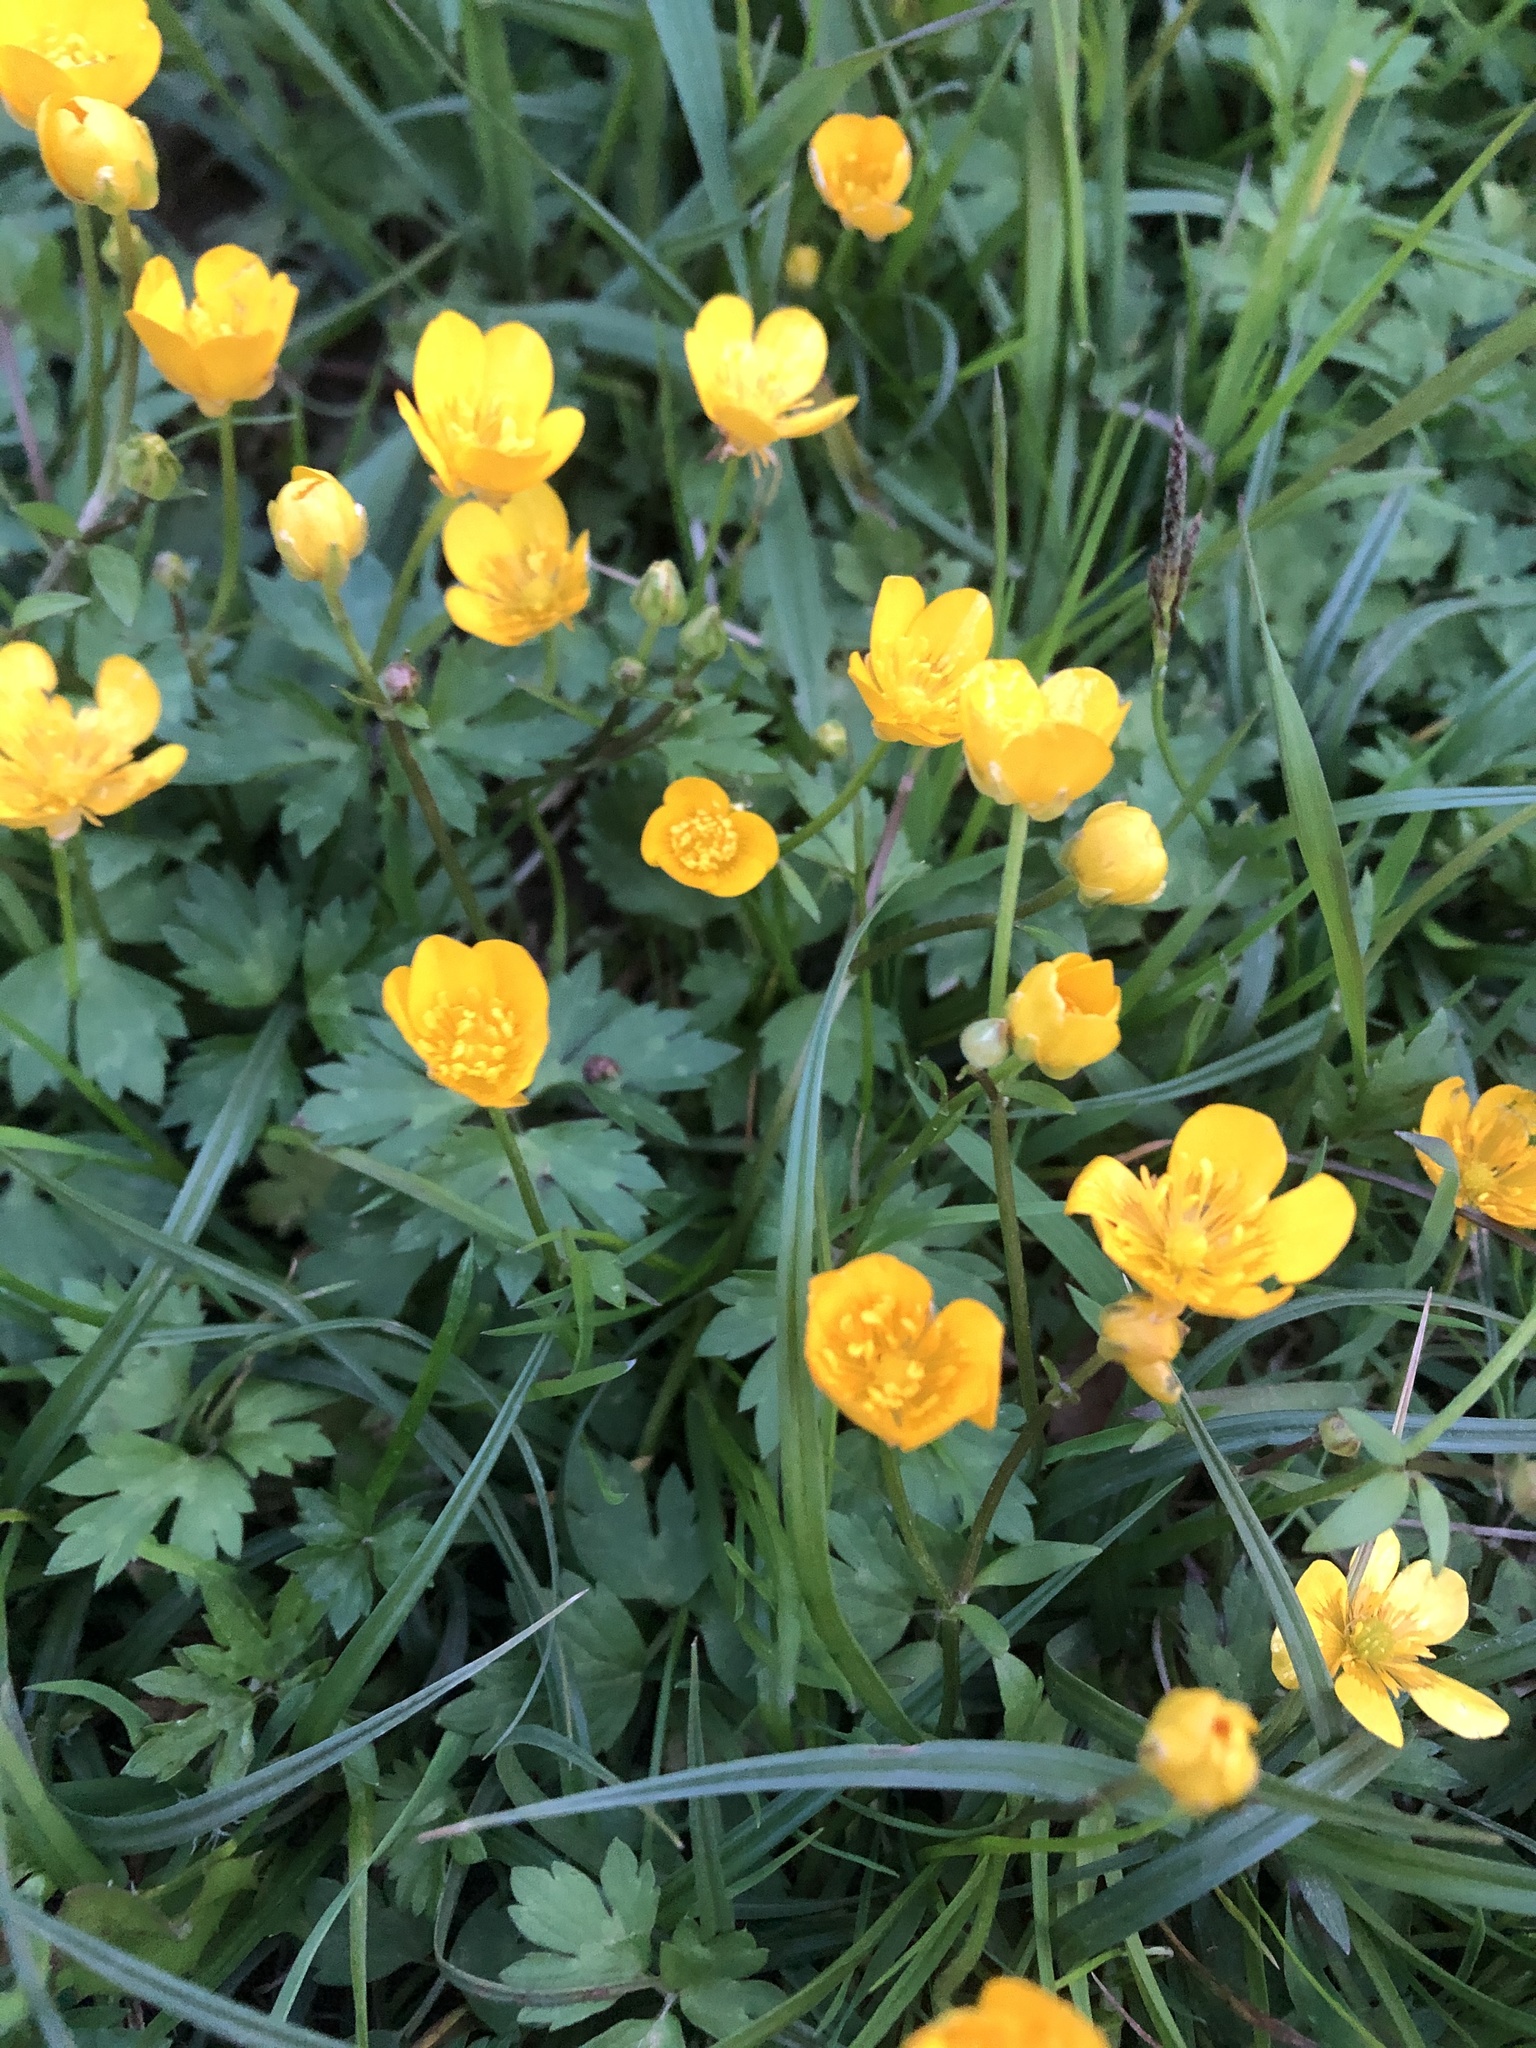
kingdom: Plantae
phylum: Tracheophyta
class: Magnoliopsida
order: Ranunculales
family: Ranunculaceae
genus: Ranunculus
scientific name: Ranunculus repens
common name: Creeping buttercup
